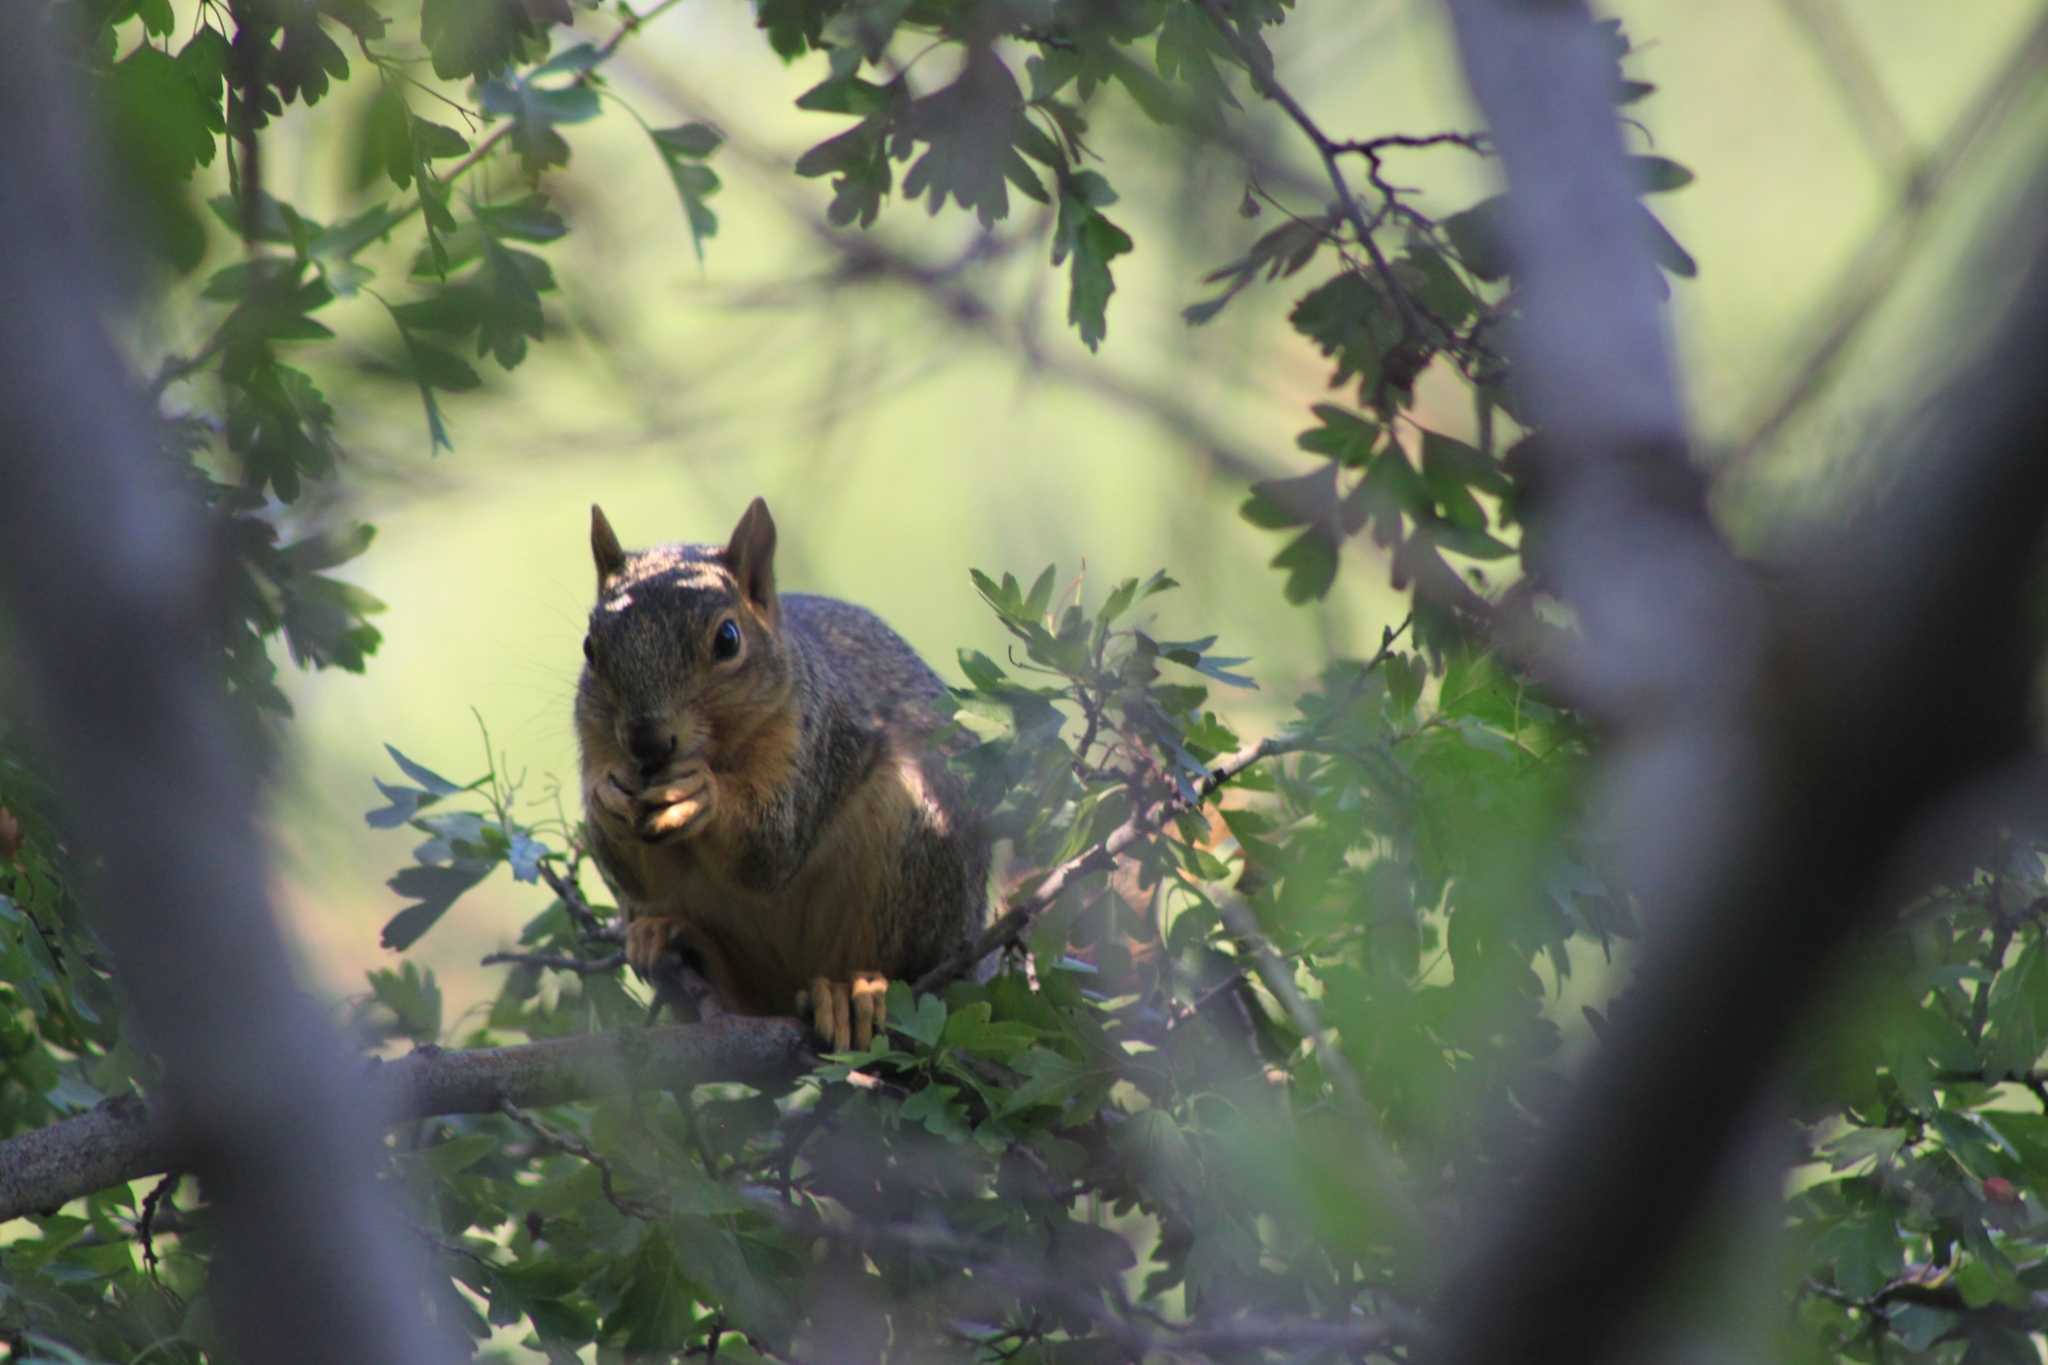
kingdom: Animalia
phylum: Chordata
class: Mammalia
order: Rodentia
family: Sciuridae
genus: Sciurus
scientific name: Sciurus niger
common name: Fox squirrel
